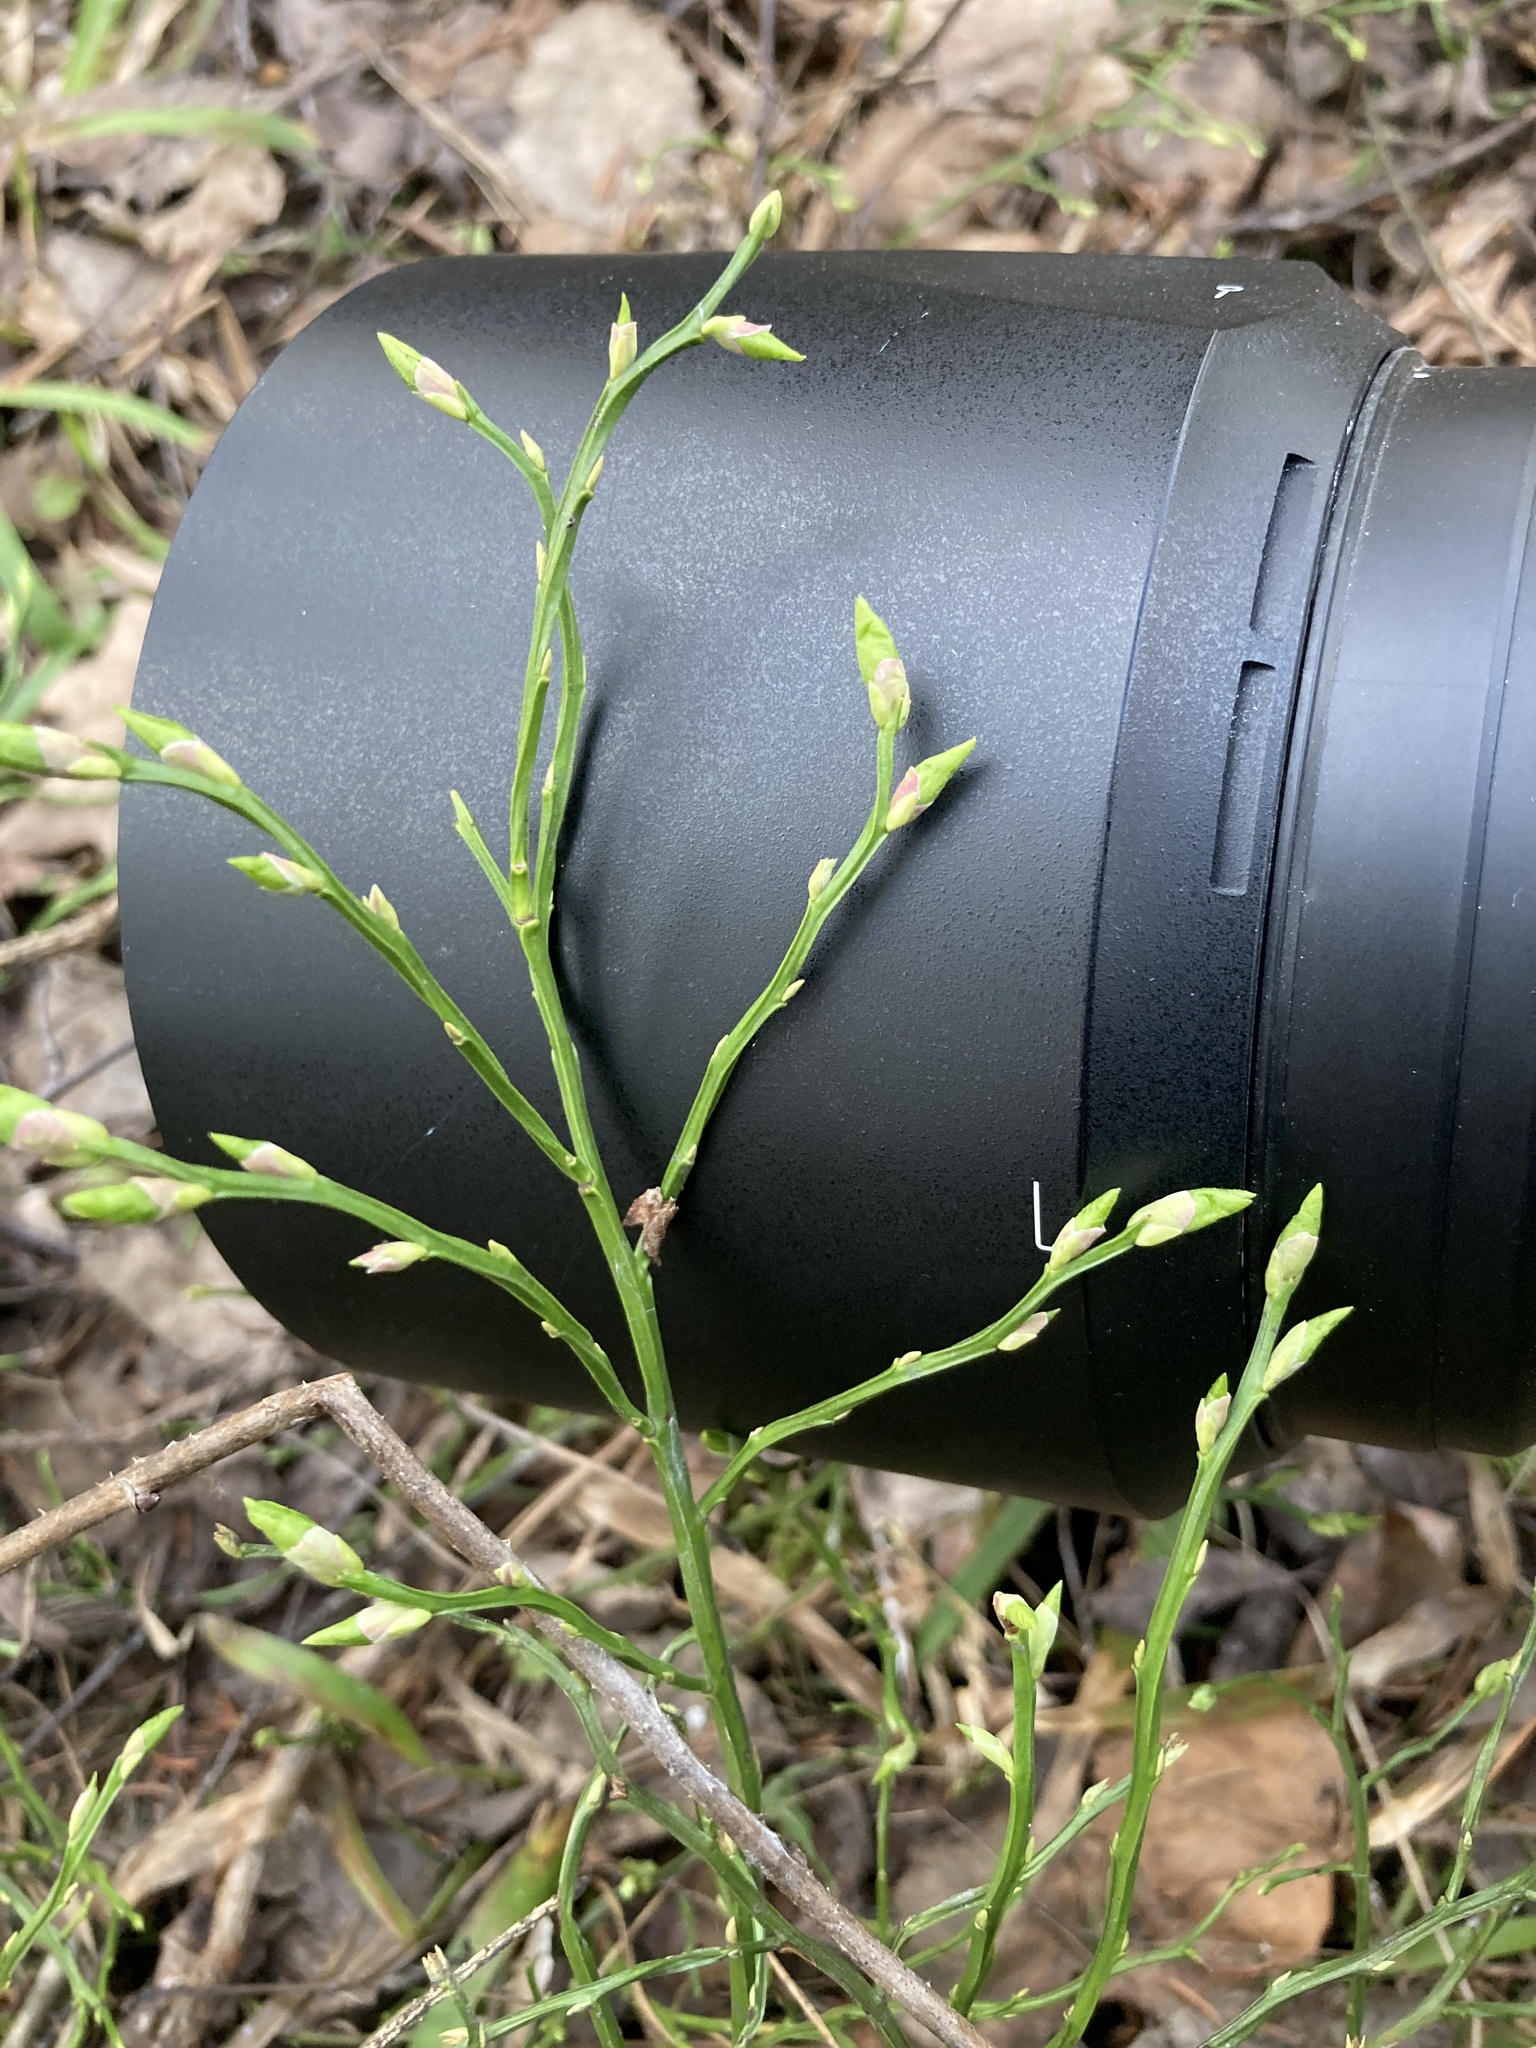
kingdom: Plantae
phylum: Tracheophyta
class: Magnoliopsida
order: Ericales
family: Ericaceae
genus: Vaccinium
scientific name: Vaccinium myrtillus
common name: Bilberry
